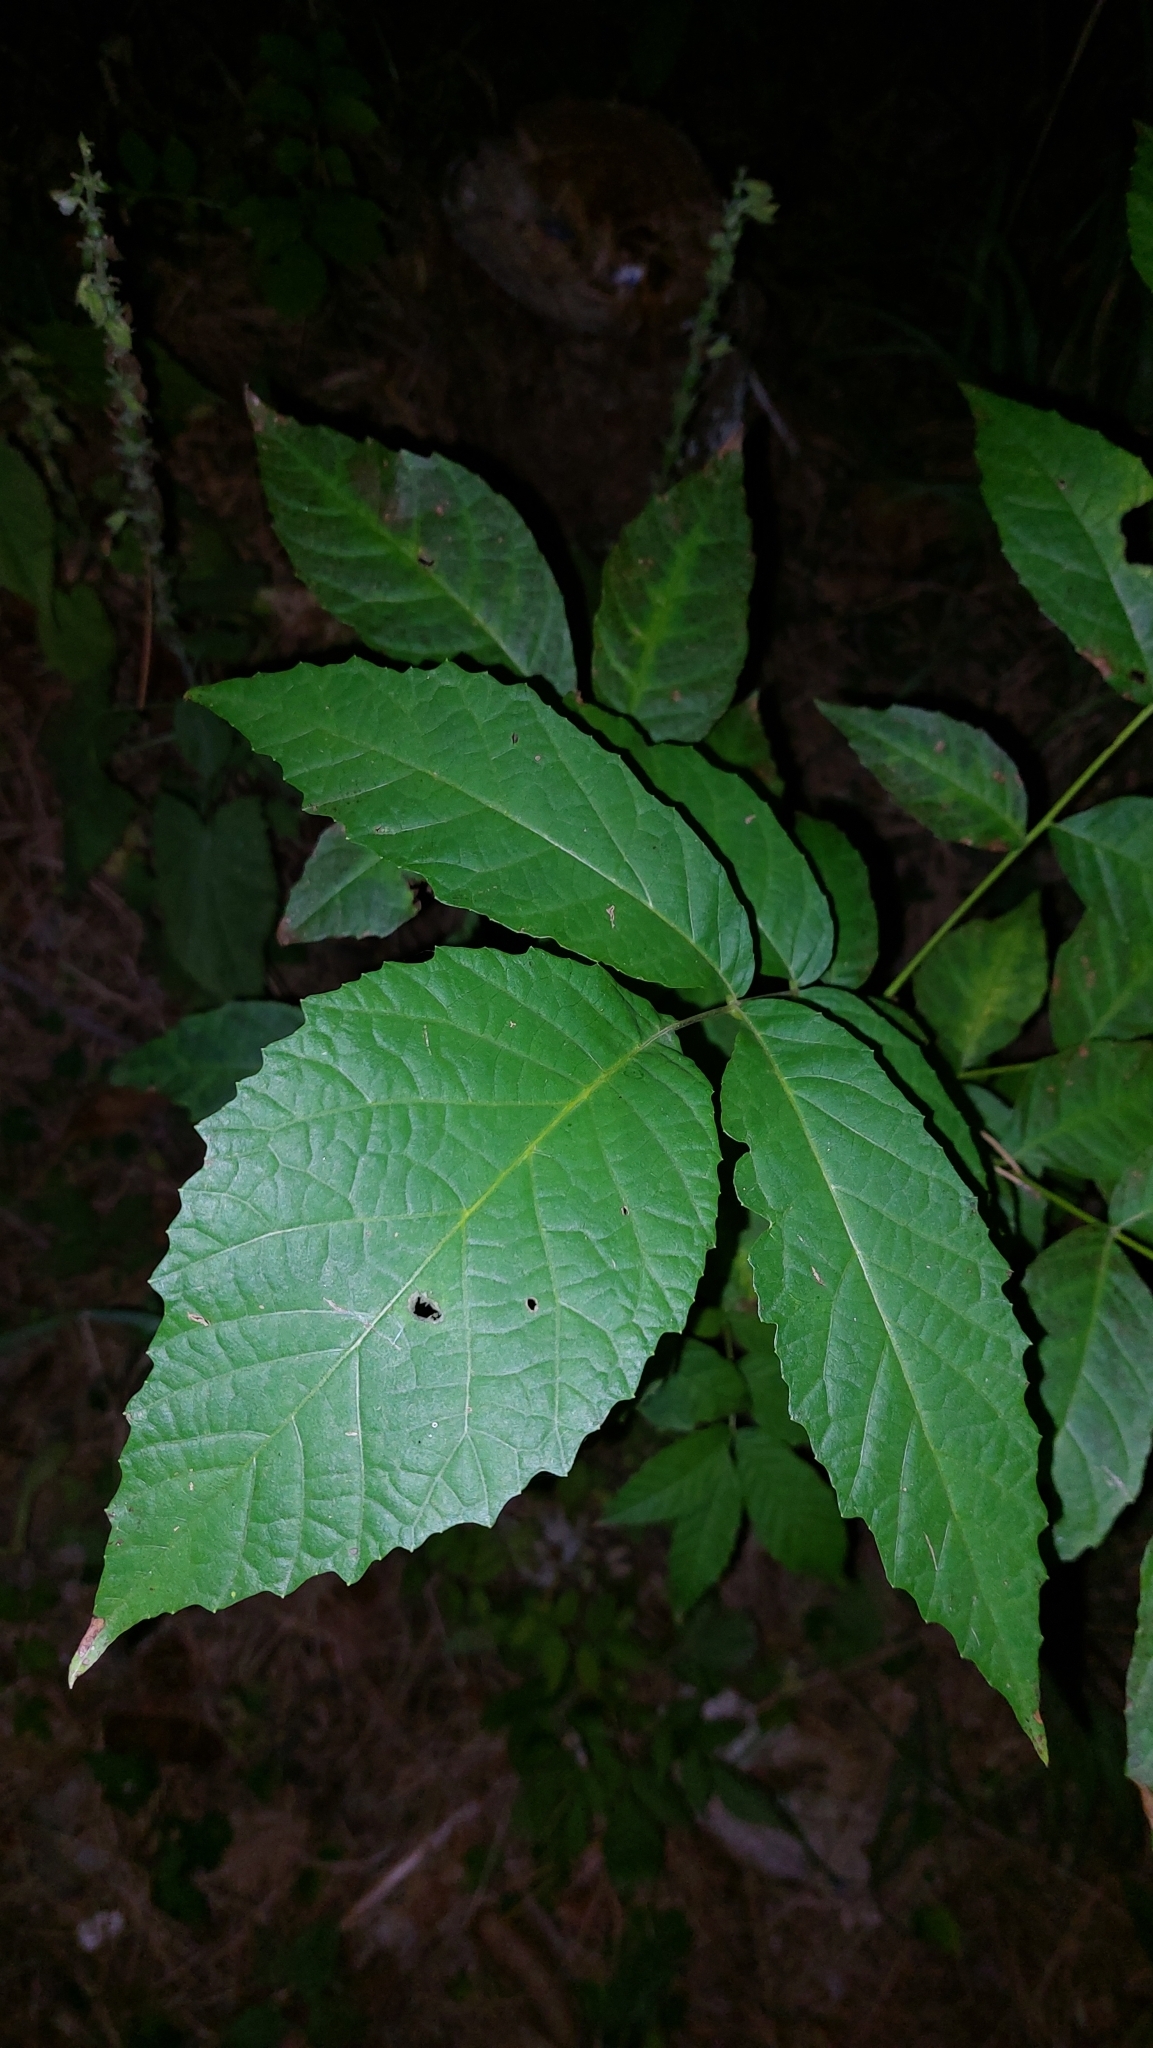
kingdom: Plantae
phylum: Tracheophyta
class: Magnoliopsida
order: Fagales
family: Juglandaceae
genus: Juglans
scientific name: Juglans regia
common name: Walnut
